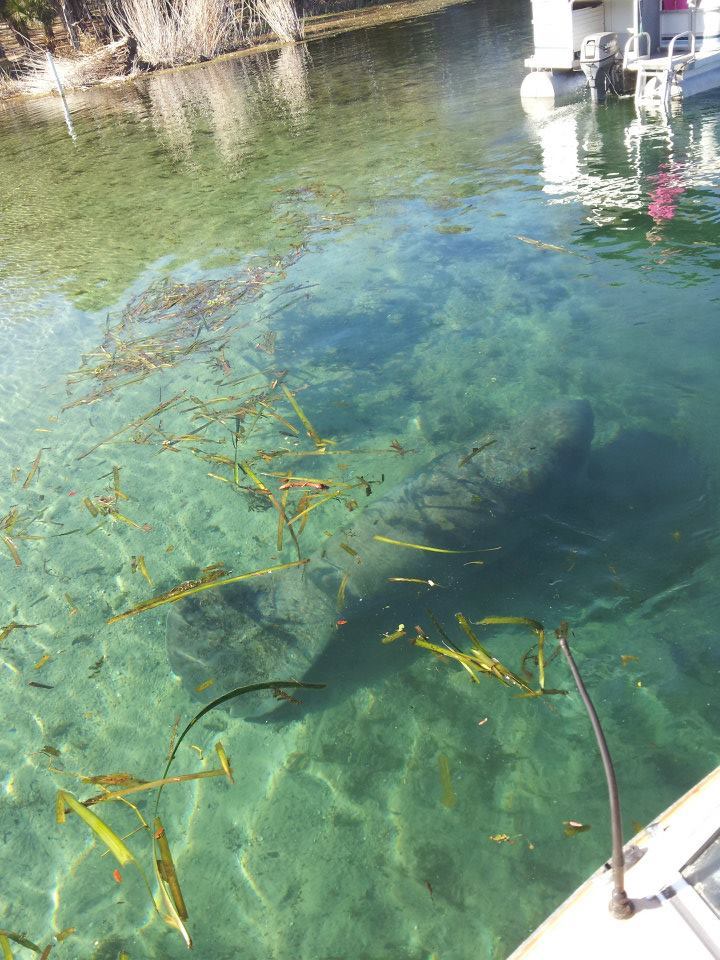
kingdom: Animalia
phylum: Chordata
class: Mammalia
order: Sirenia
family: Trichechidae
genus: Trichechus
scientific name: Trichechus manatus
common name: West indian manatee
